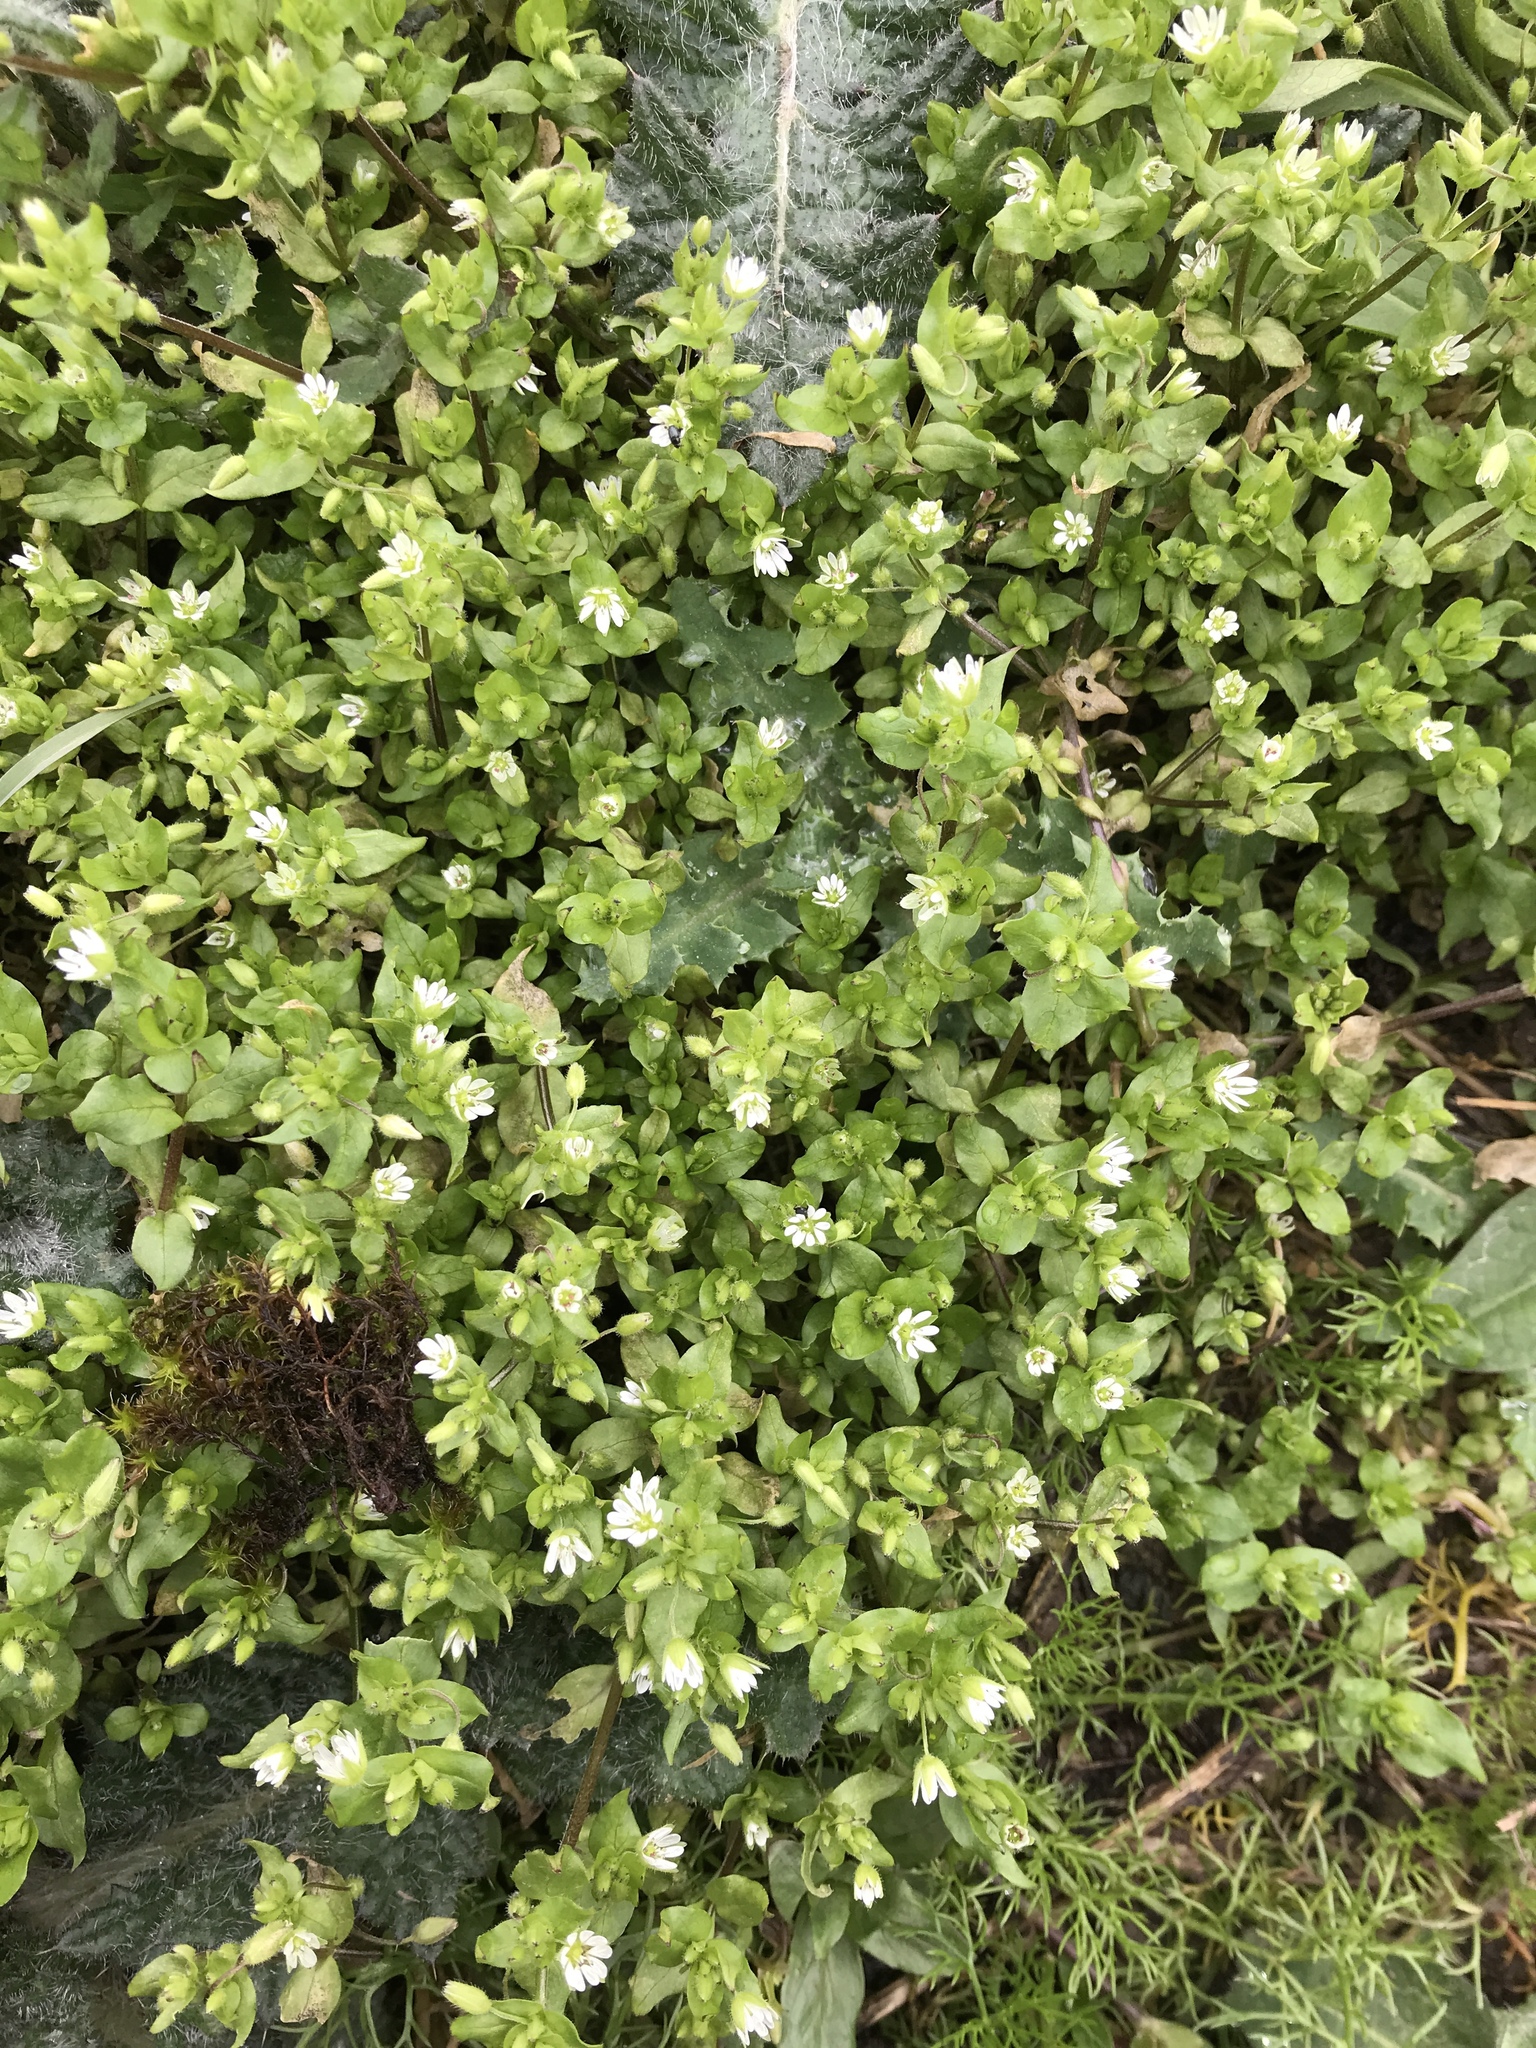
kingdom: Plantae
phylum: Tracheophyta
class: Magnoliopsida
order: Caryophyllales
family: Caryophyllaceae
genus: Stellaria
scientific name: Stellaria media
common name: Common chickweed
